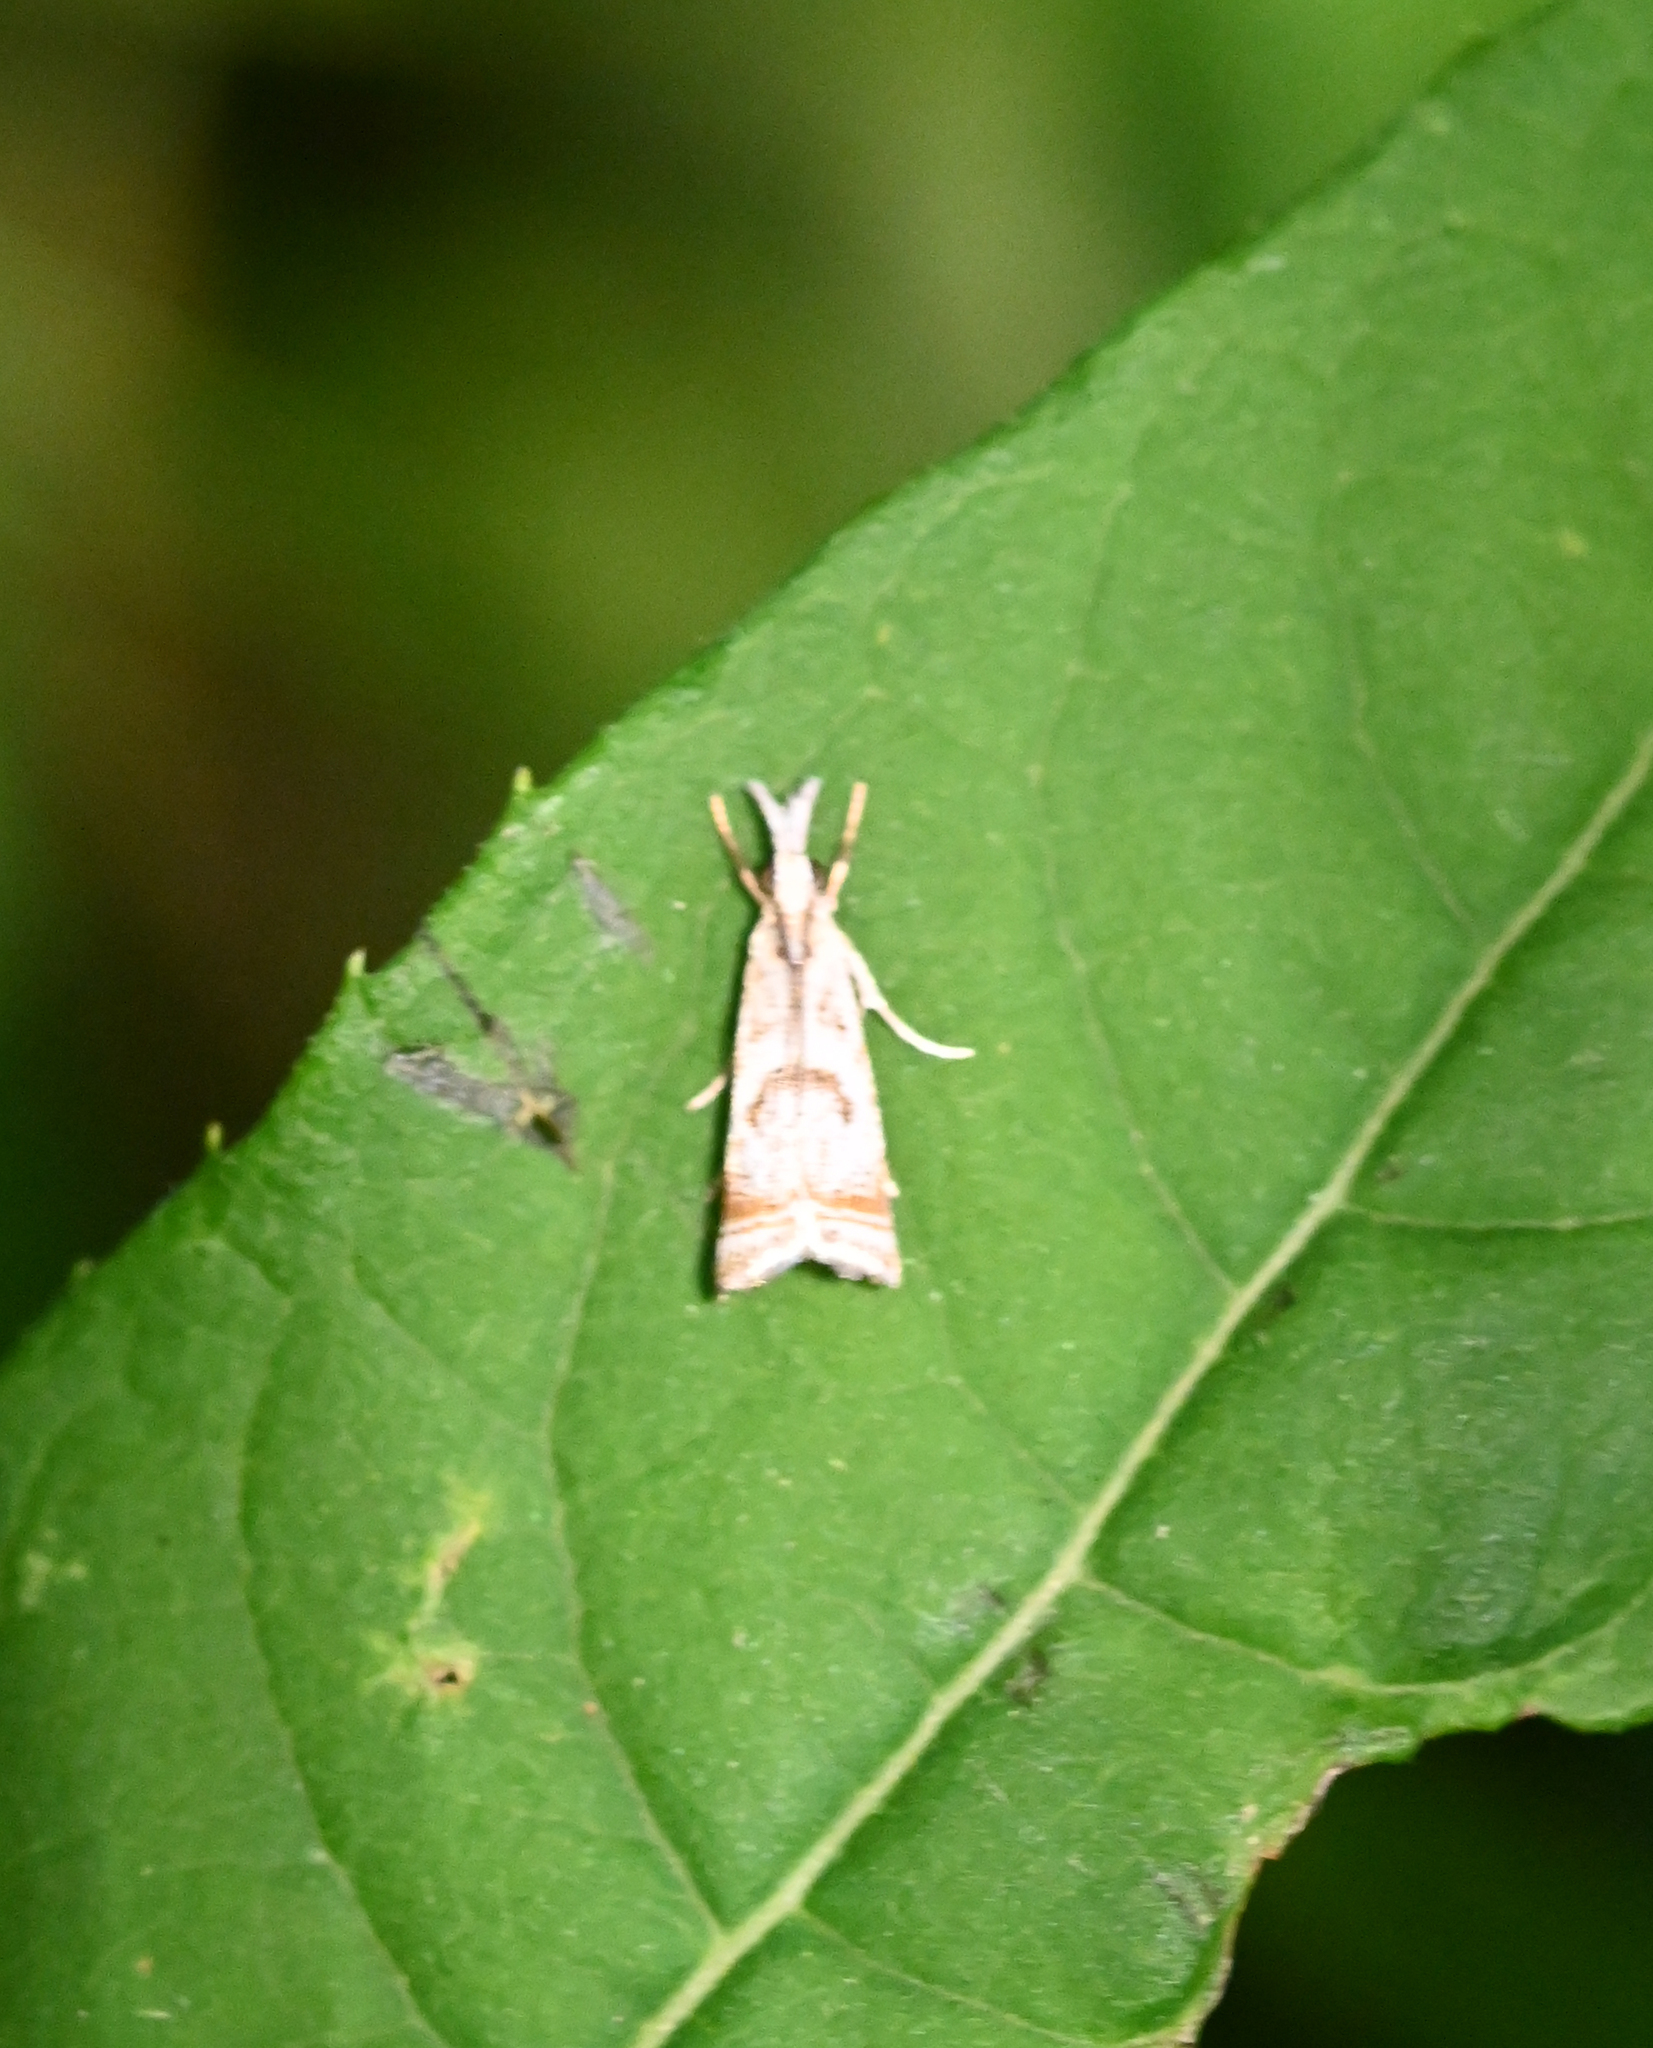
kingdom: Animalia
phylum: Arthropoda
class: Insecta
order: Lepidoptera
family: Crambidae
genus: Microcrambus
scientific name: Microcrambus elegans
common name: Elegant grass-veneer
